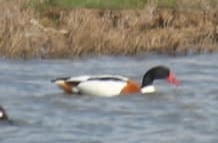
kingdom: Animalia
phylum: Chordata
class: Aves
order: Anseriformes
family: Anatidae
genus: Tadorna
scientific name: Tadorna tadorna
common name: Common shelduck
